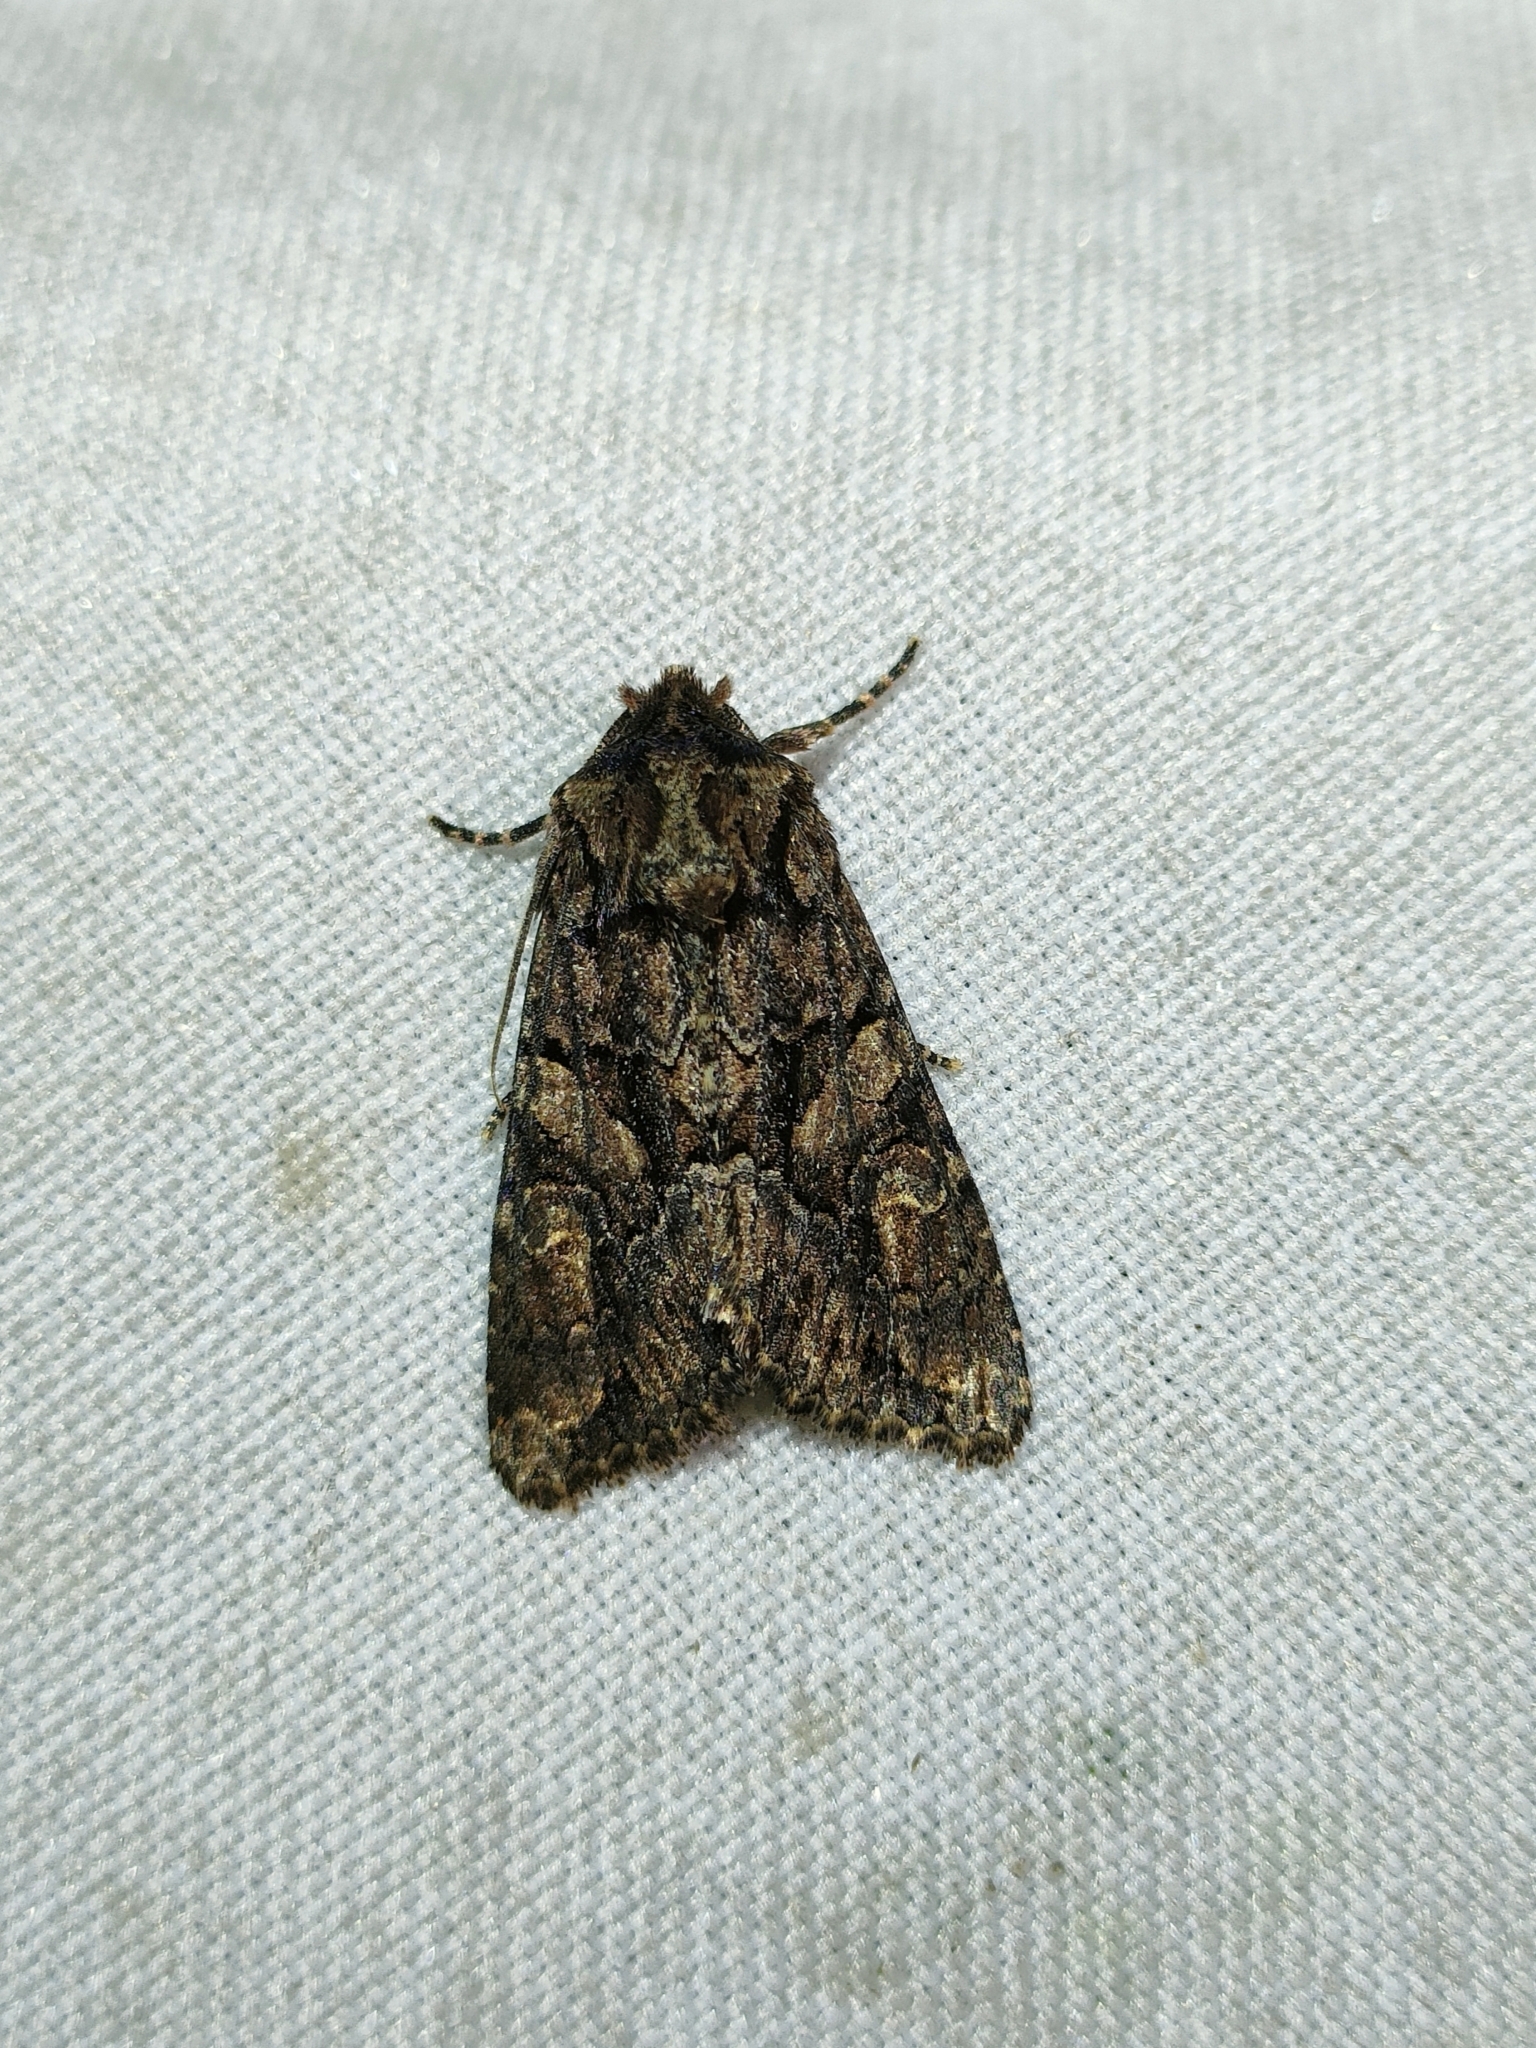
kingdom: Animalia
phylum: Arthropoda
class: Insecta
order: Lepidoptera
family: Noctuidae
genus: Dryobotodes
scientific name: Dryobotodes tenebrosa
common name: Sombre brocade
